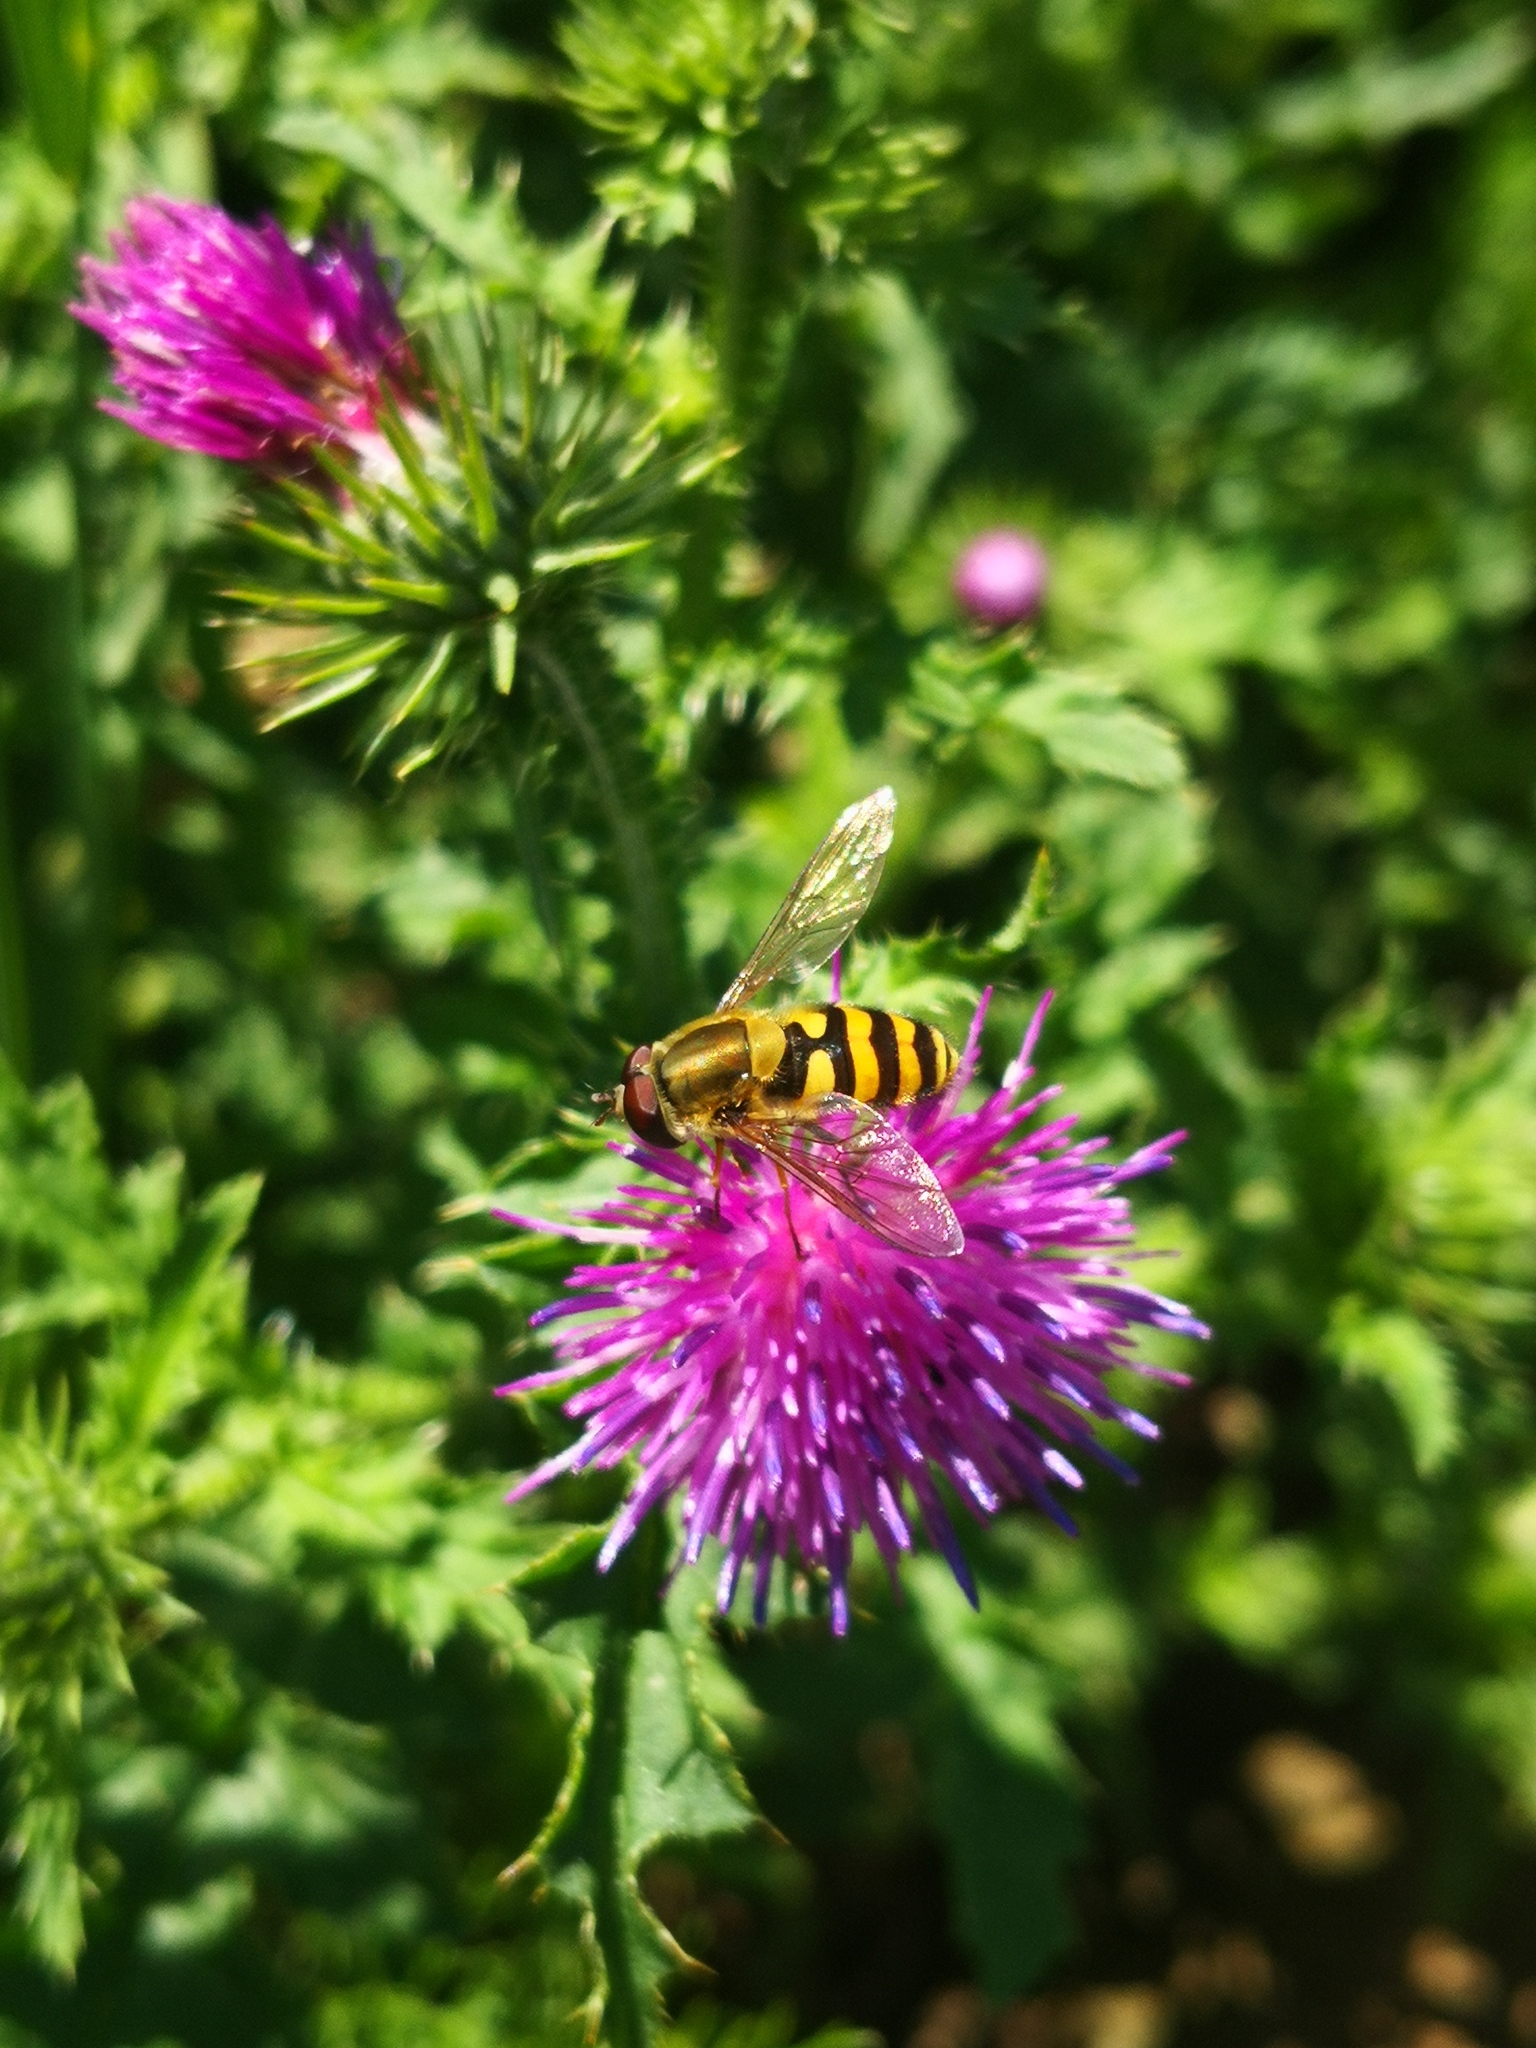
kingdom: Animalia
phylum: Arthropoda
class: Insecta
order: Diptera
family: Syrphidae
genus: Syrphus
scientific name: Syrphus vitripennis
